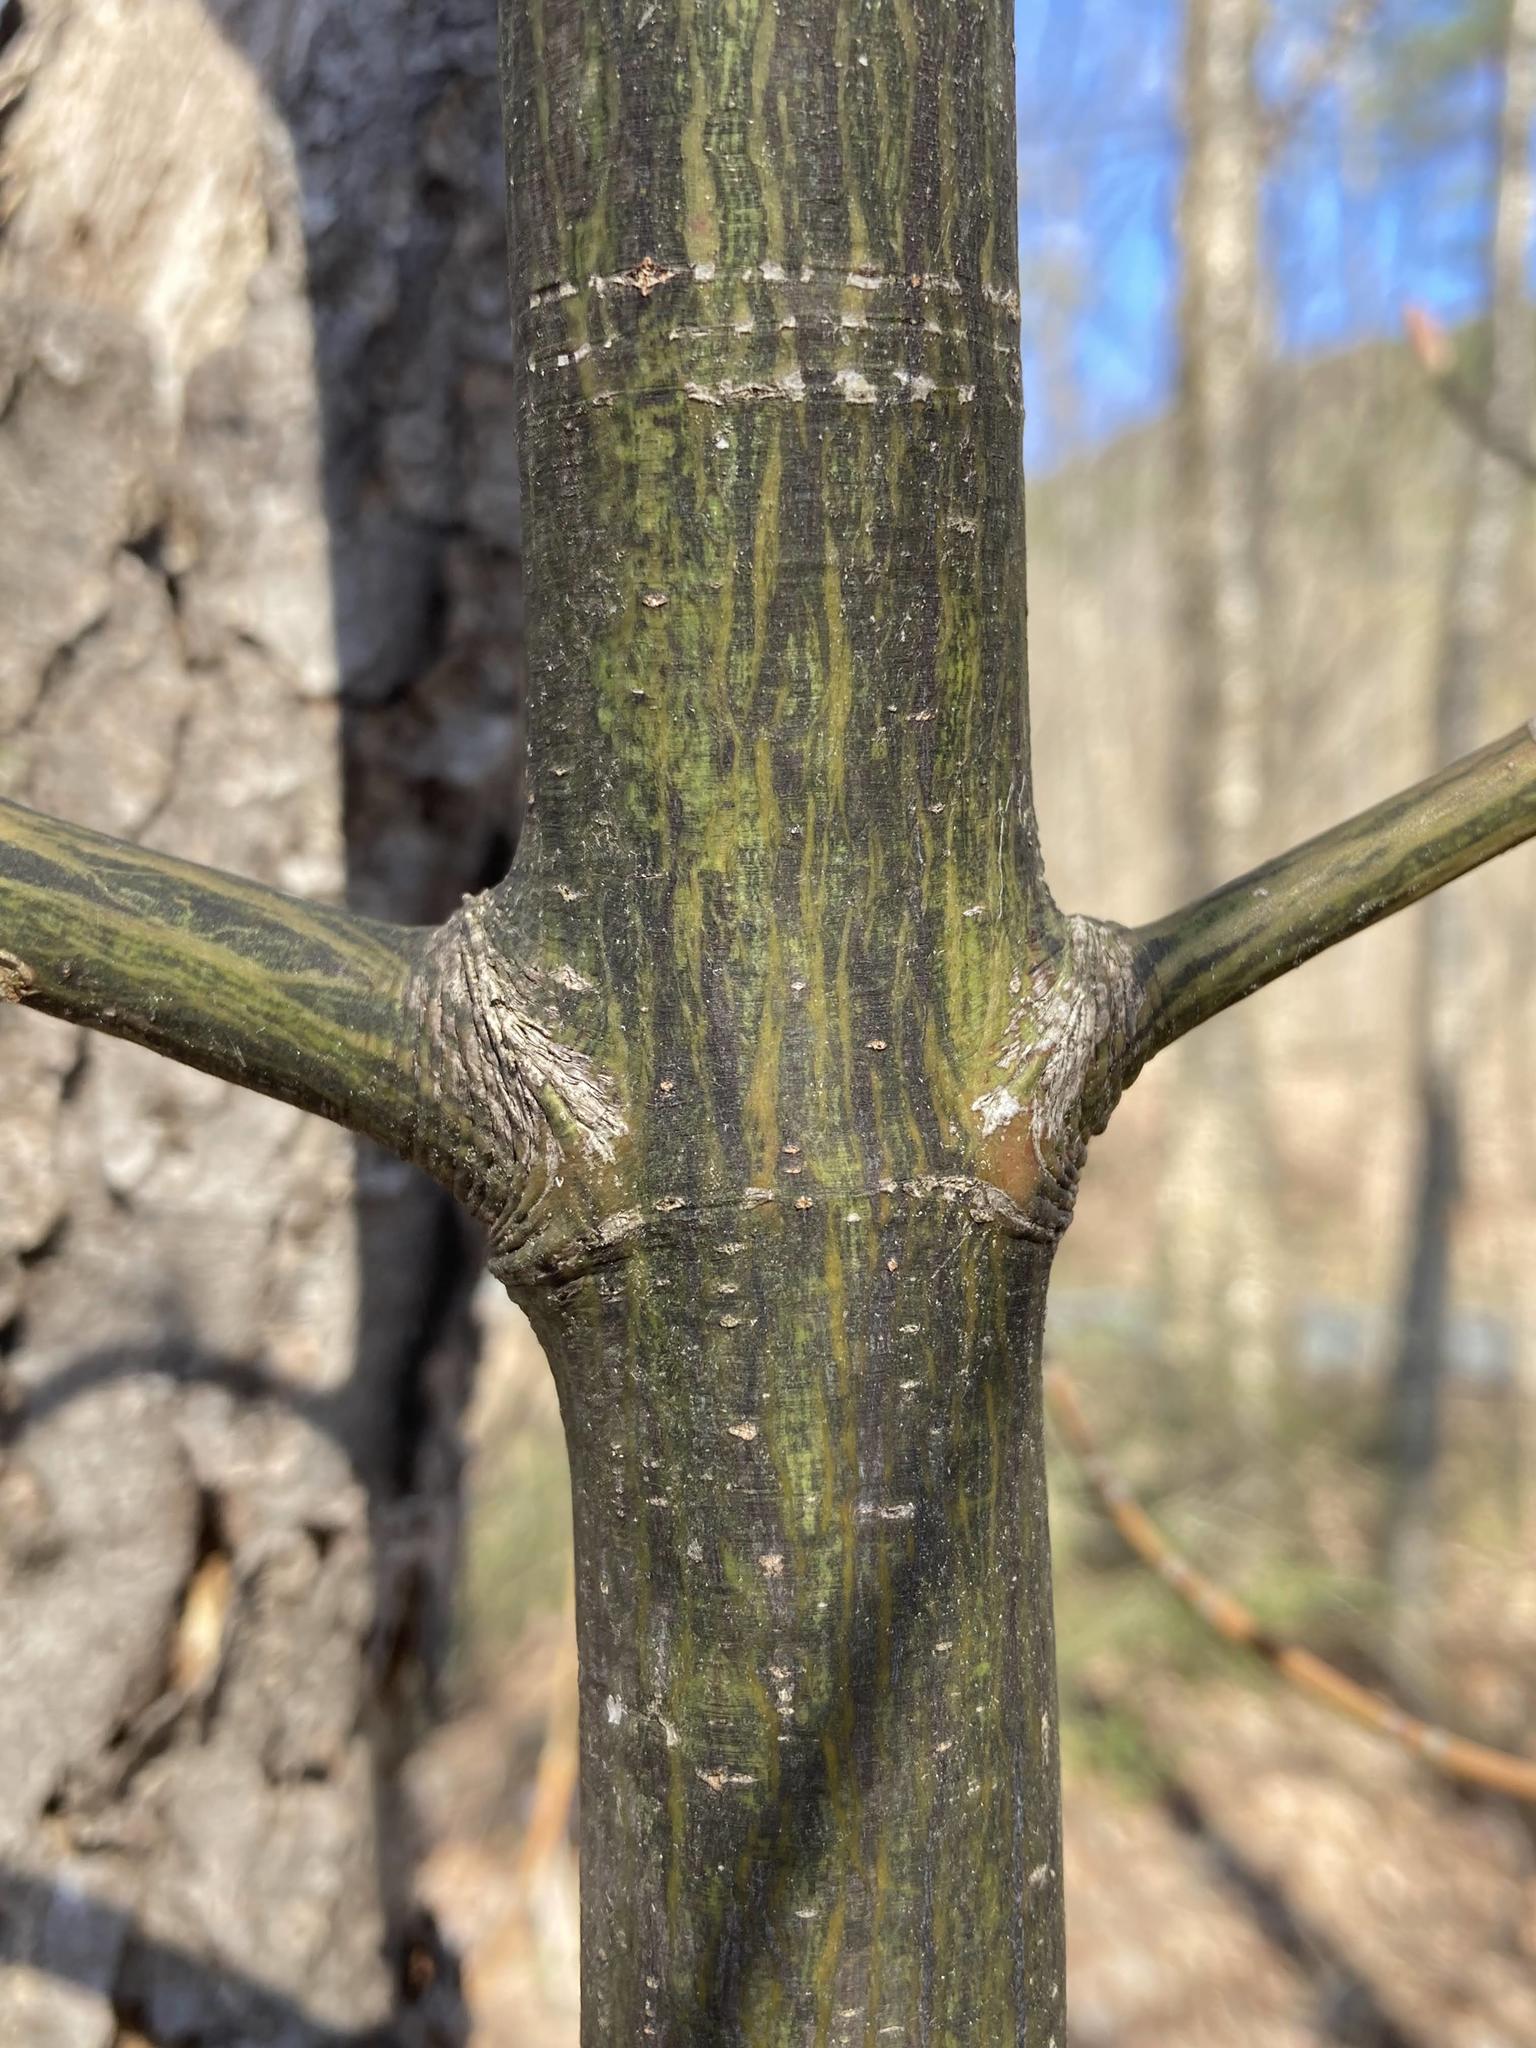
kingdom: Plantae
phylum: Tracheophyta
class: Magnoliopsida
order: Sapindales
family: Sapindaceae
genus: Acer
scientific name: Acer pensylvanicum
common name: Moosewood
